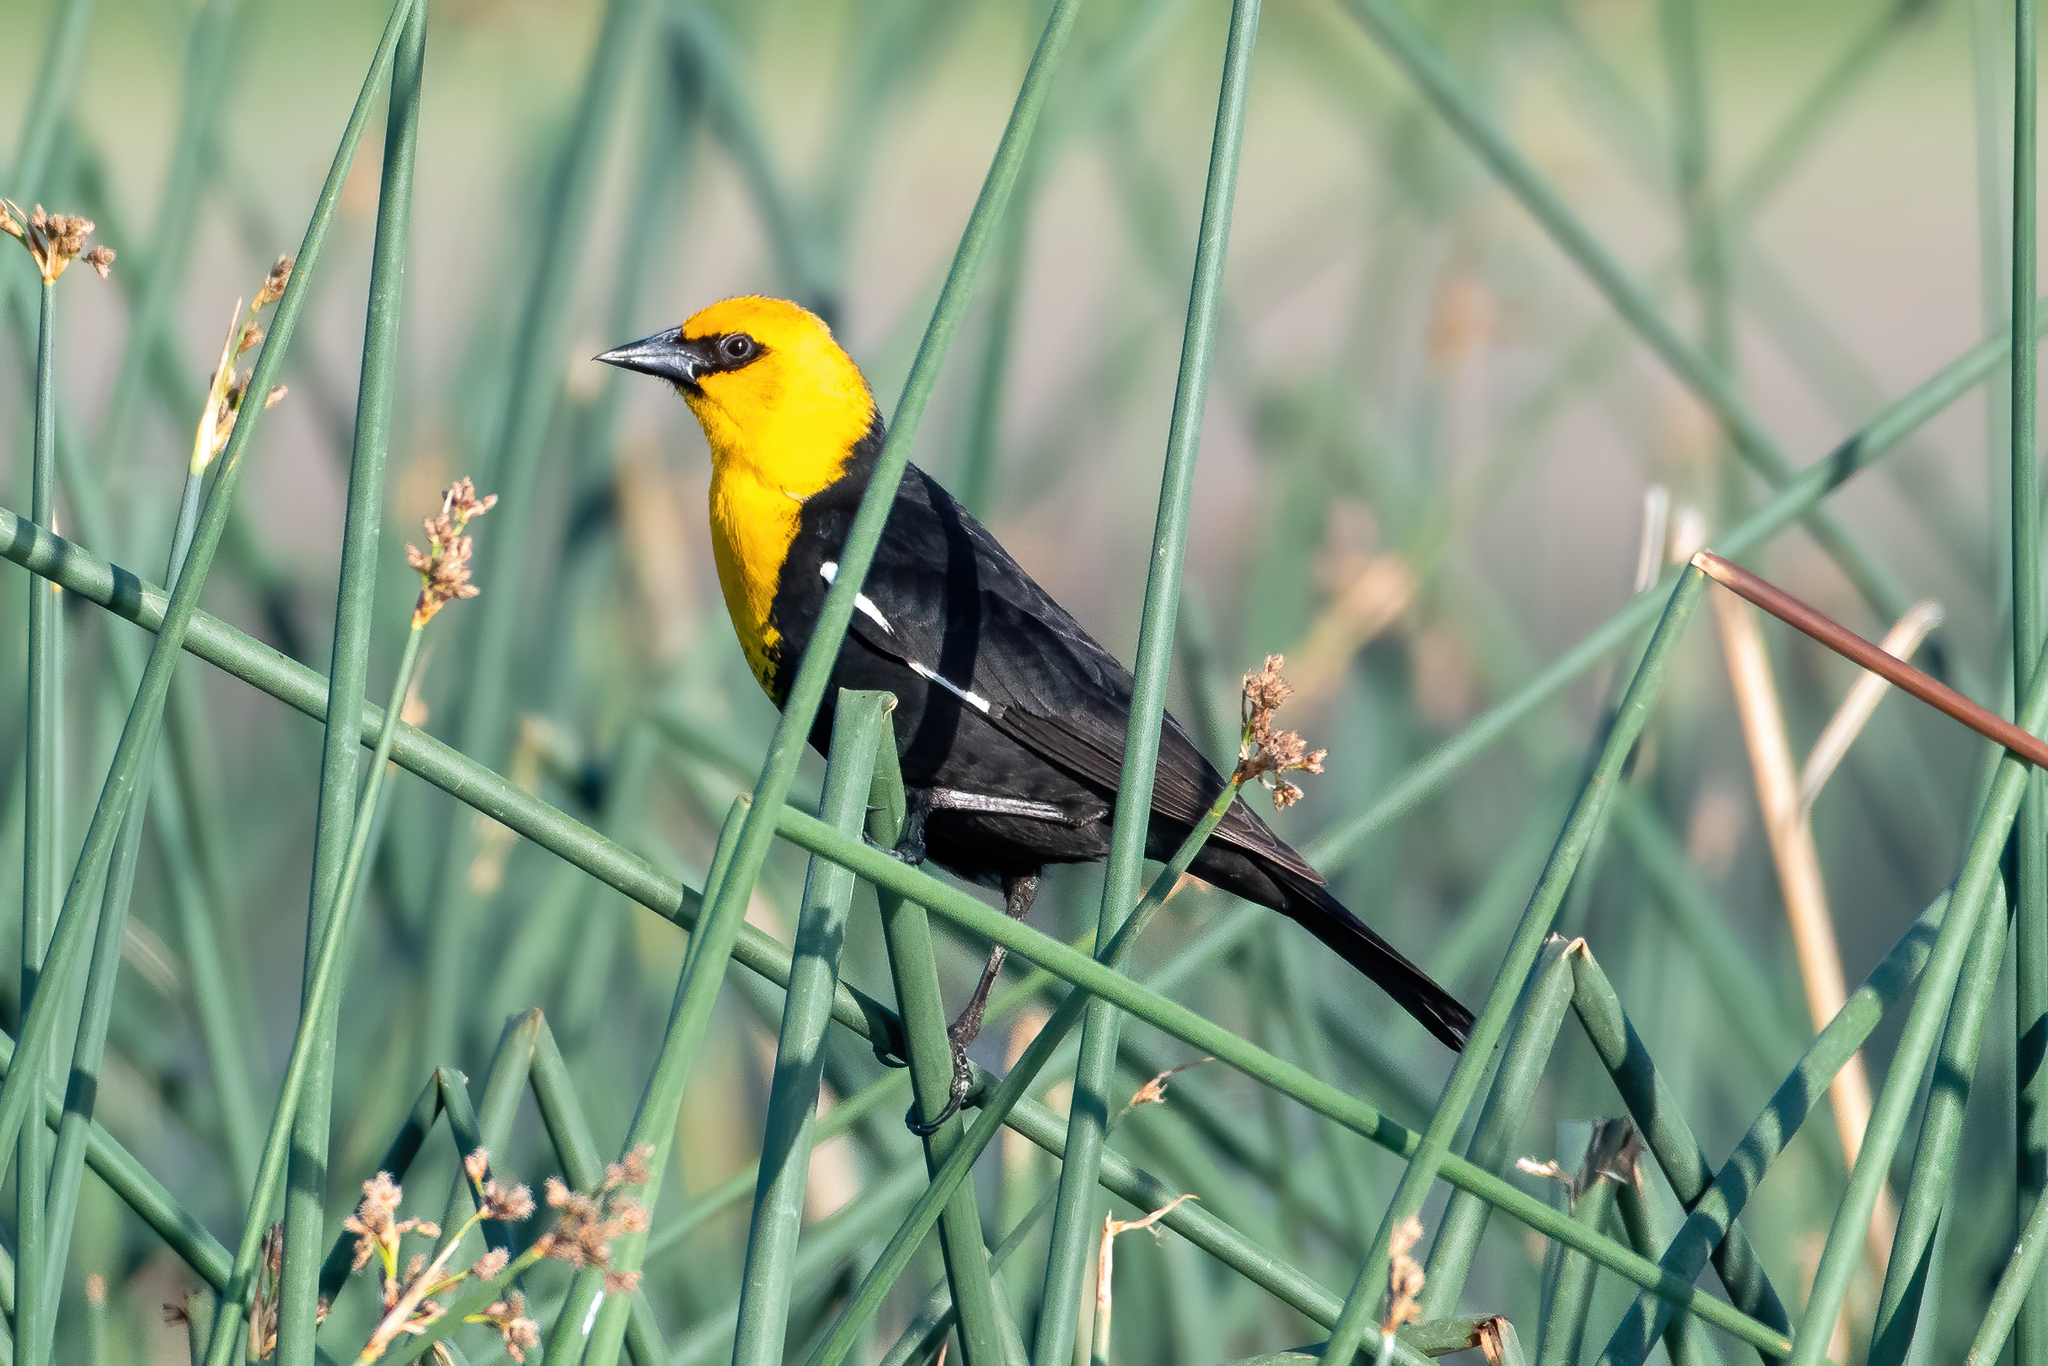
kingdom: Animalia
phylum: Chordata
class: Aves
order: Passeriformes
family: Icteridae
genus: Xanthocephalus
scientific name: Xanthocephalus xanthocephalus
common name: Yellow-headed blackbird
